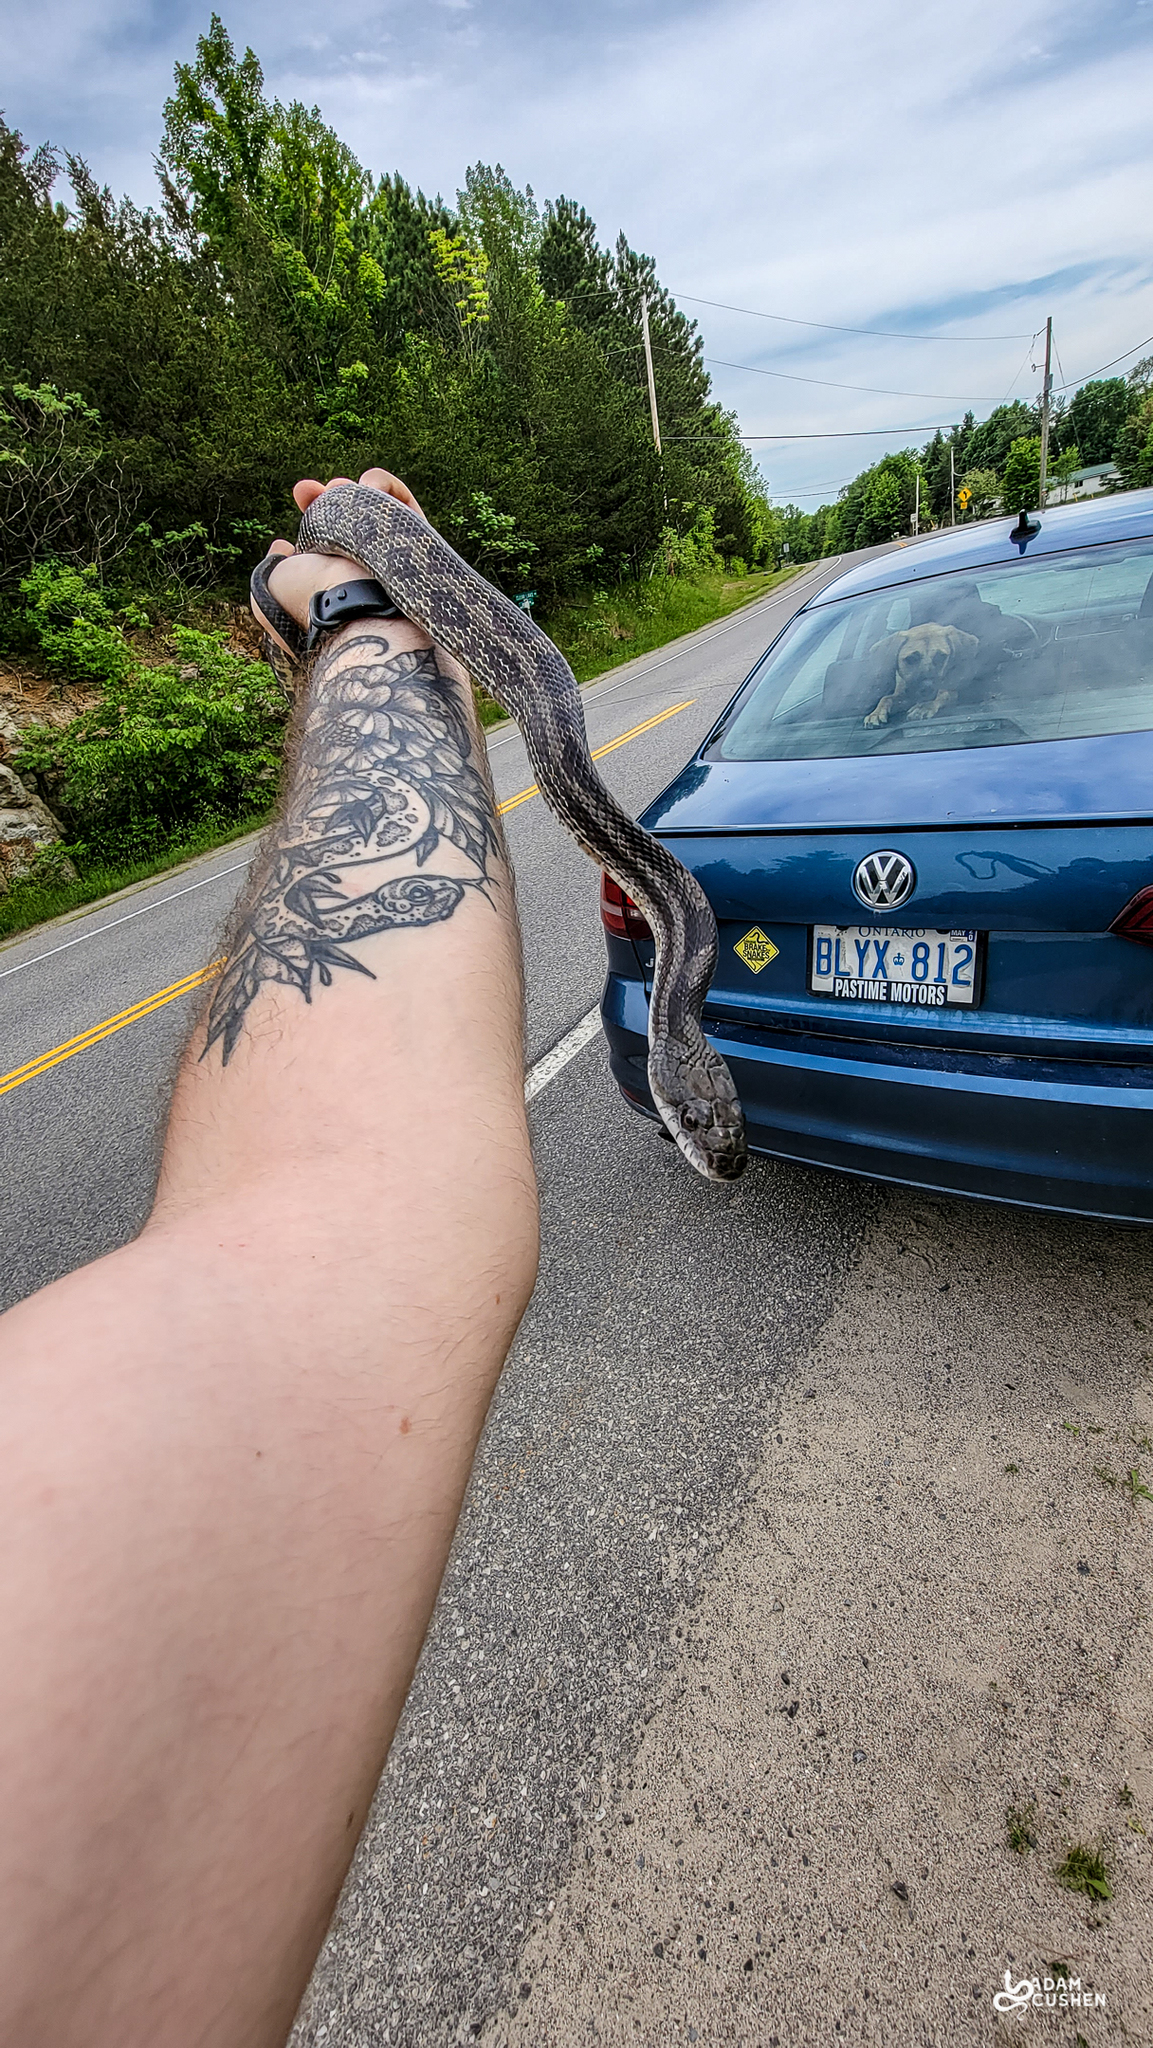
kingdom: Animalia
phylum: Chordata
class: Squamata
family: Colubridae
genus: Pantherophis
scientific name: Pantherophis spiloides
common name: Gray rat snake
